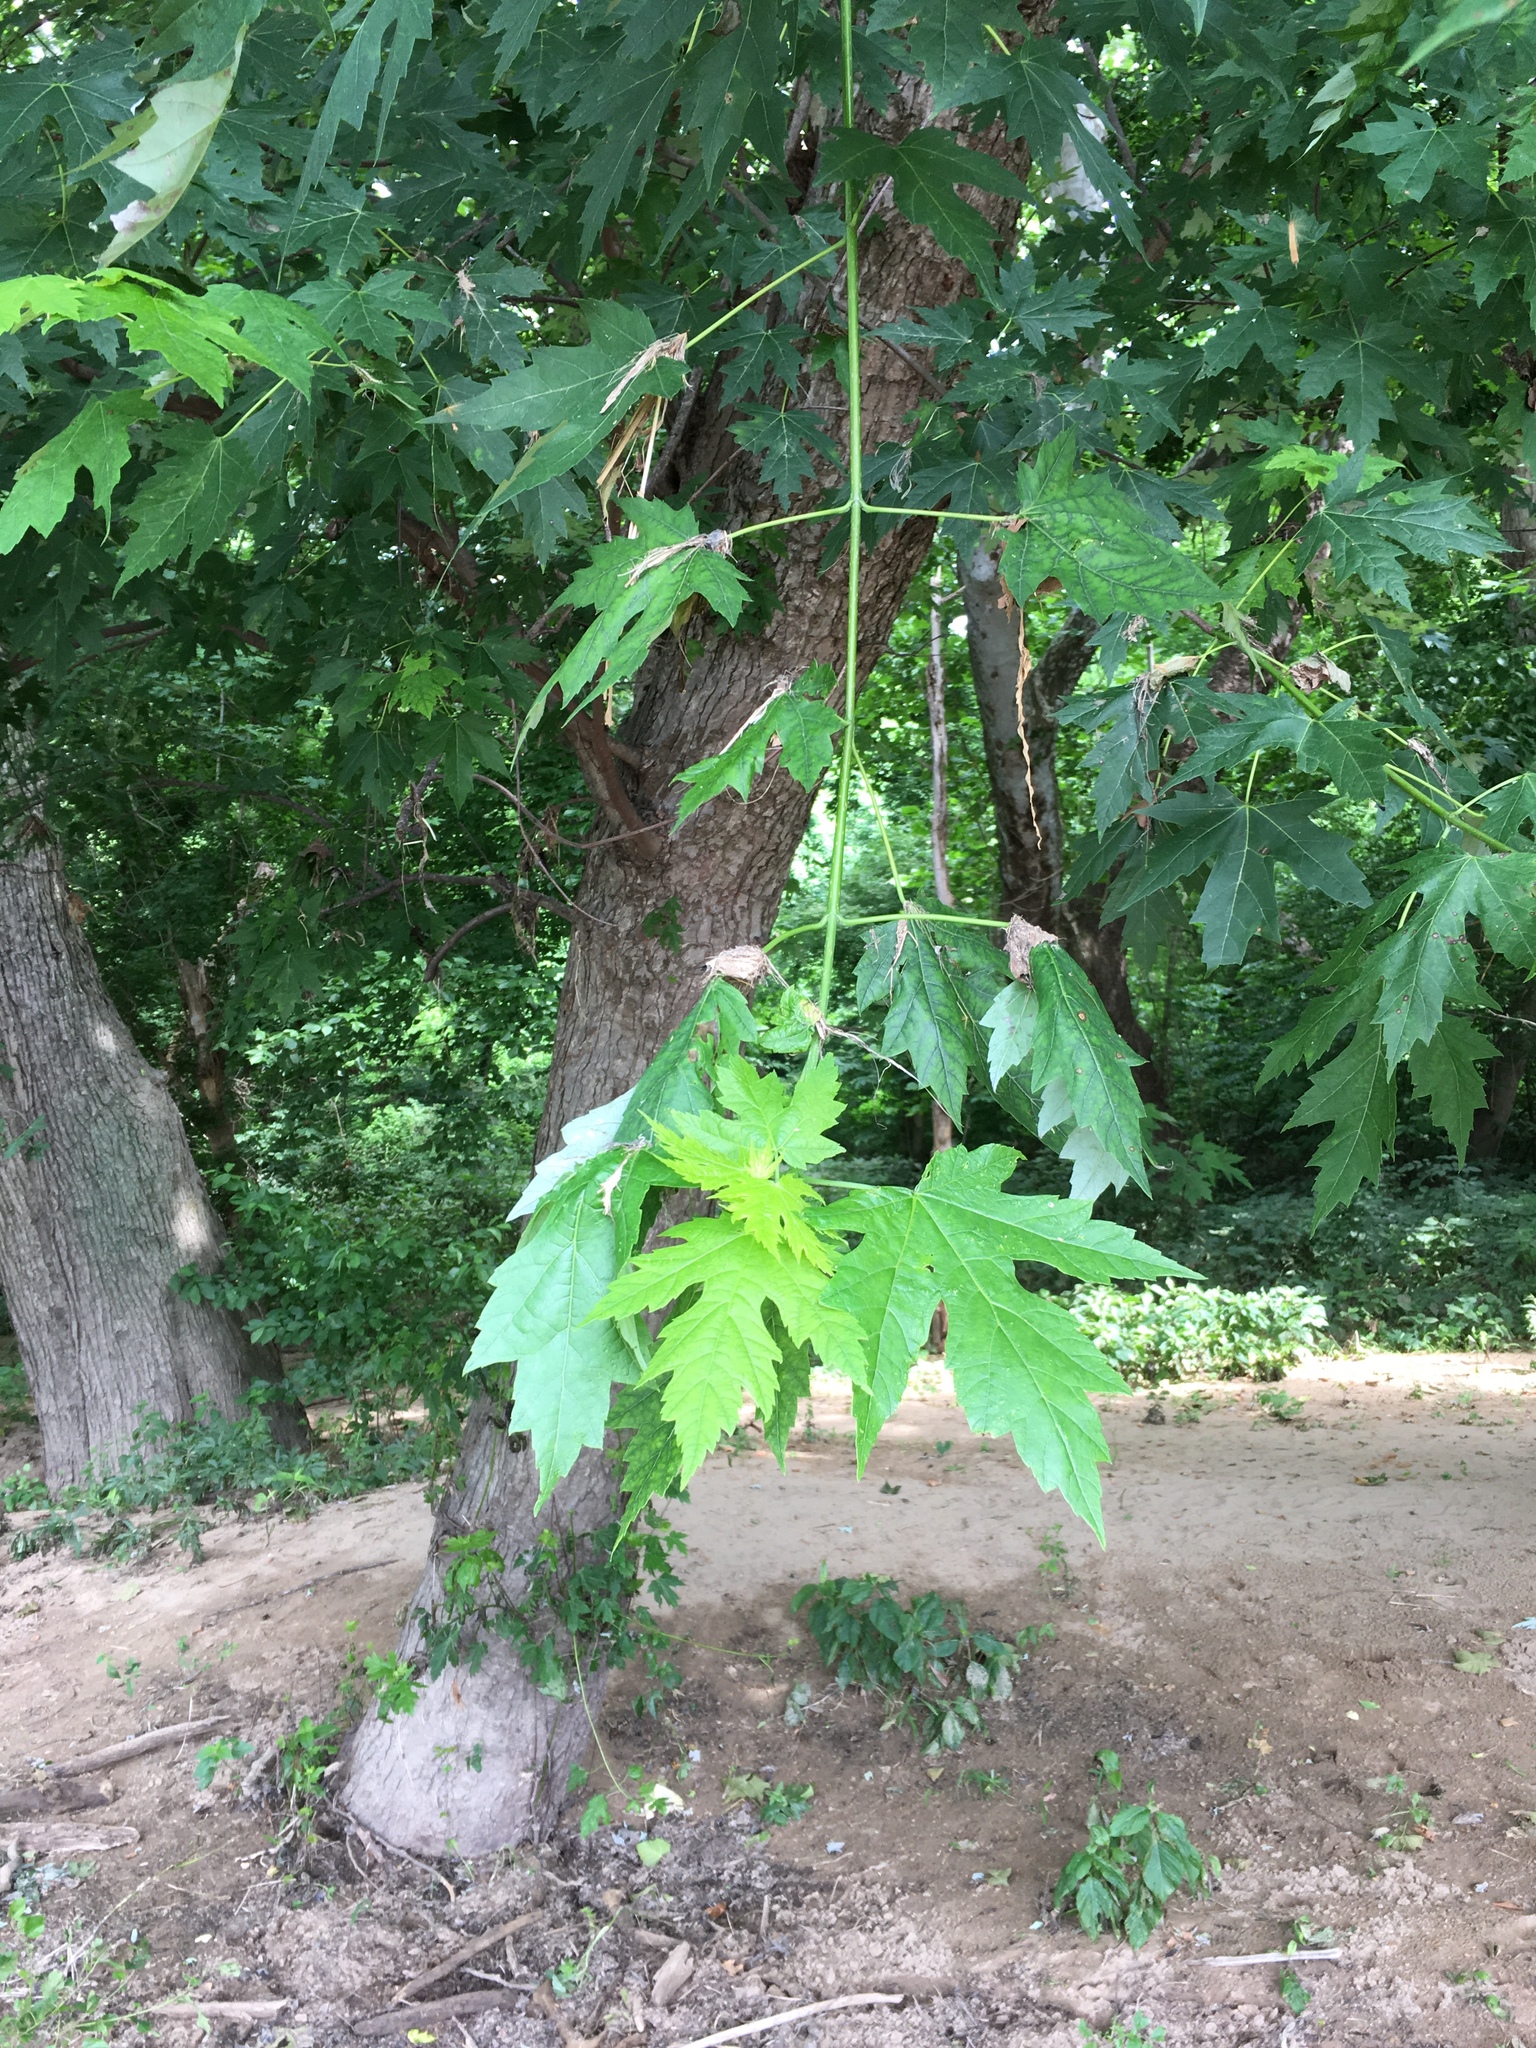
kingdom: Plantae
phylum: Tracheophyta
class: Magnoliopsida
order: Sapindales
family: Sapindaceae
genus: Acer
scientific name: Acer saccharinum
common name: Silver maple
